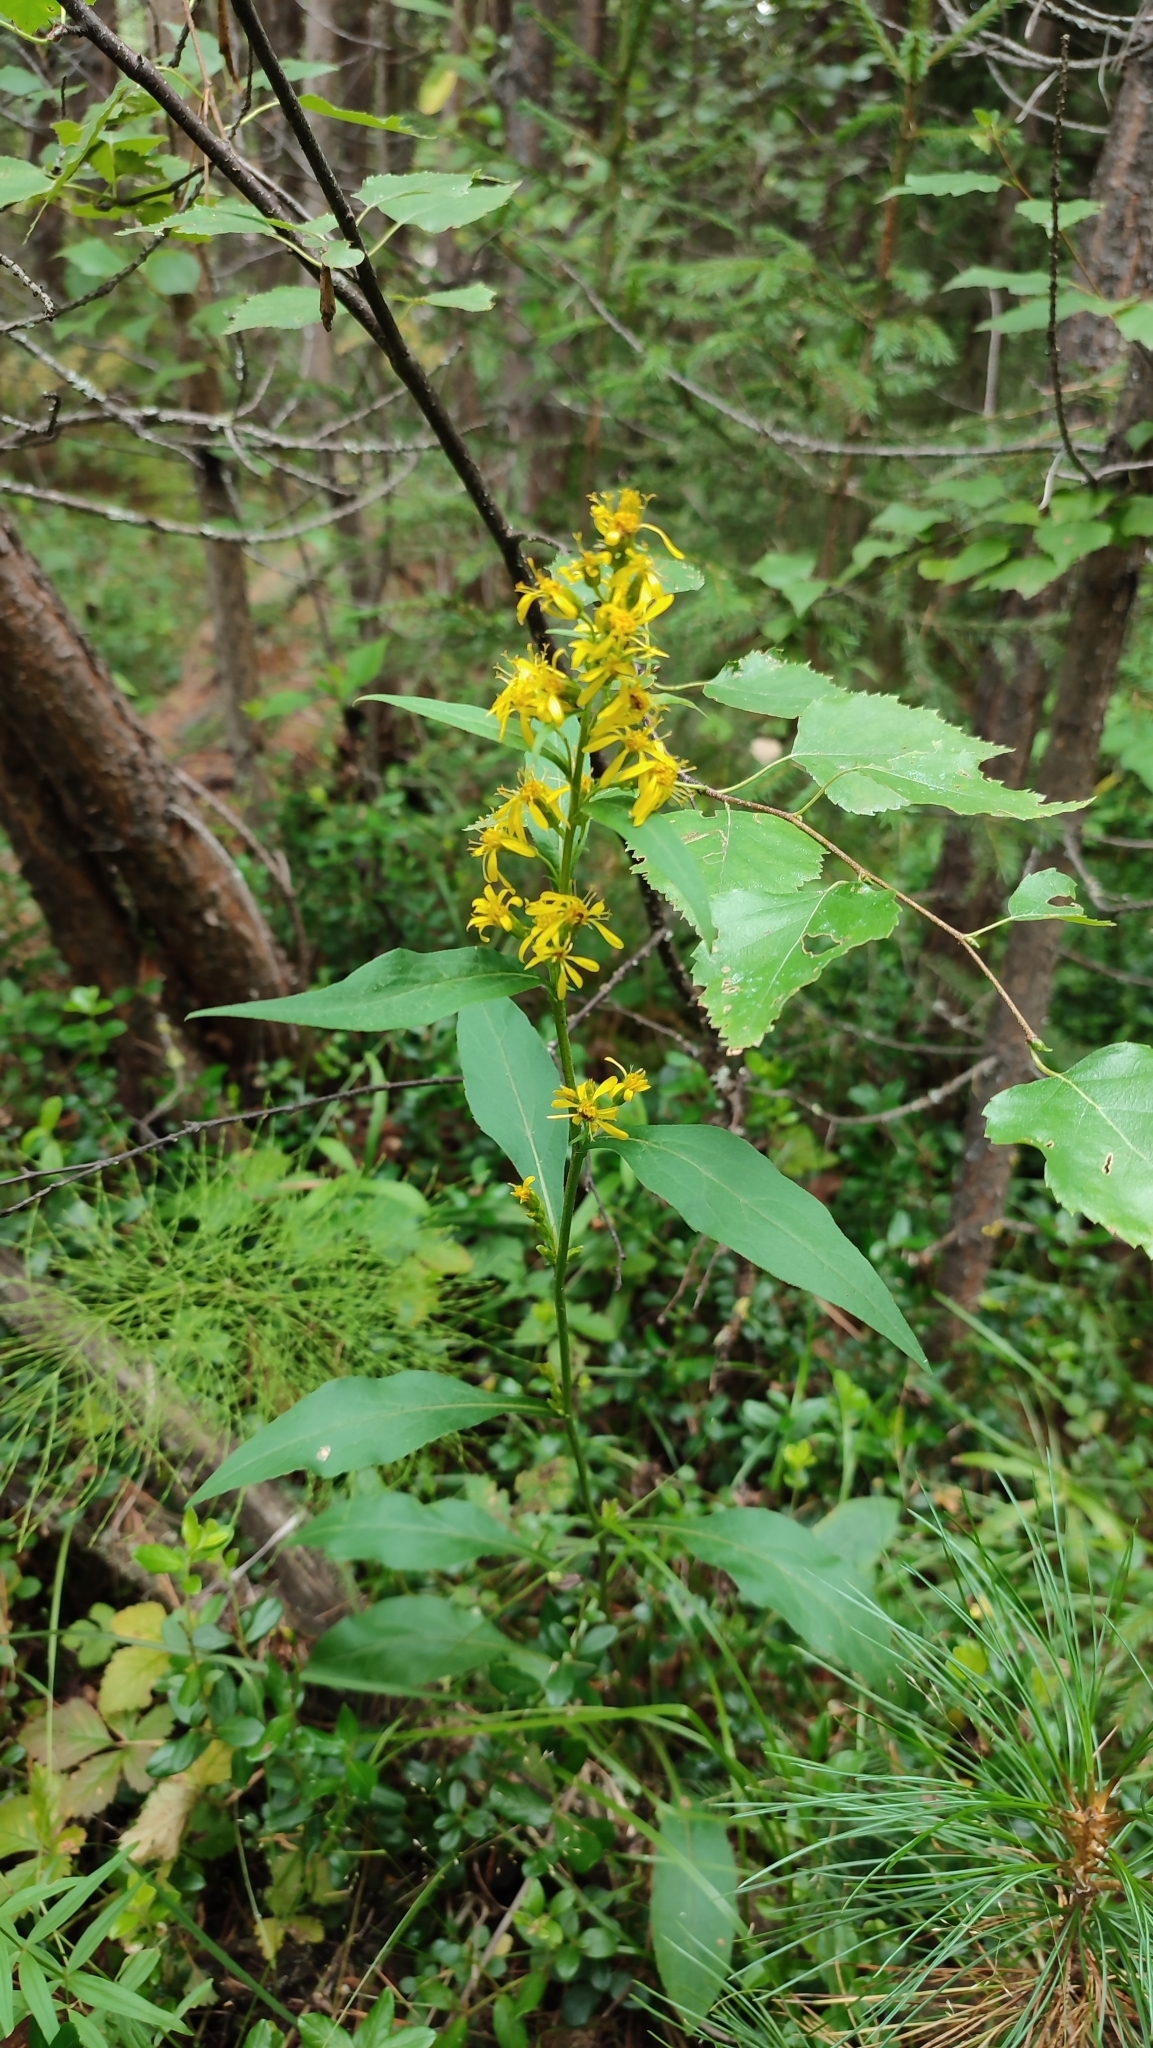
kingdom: Plantae
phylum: Tracheophyta
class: Magnoliopsida
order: Asterales
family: Asteraceae
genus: Solidago
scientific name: Solidago virgaurea
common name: Goldenrod
